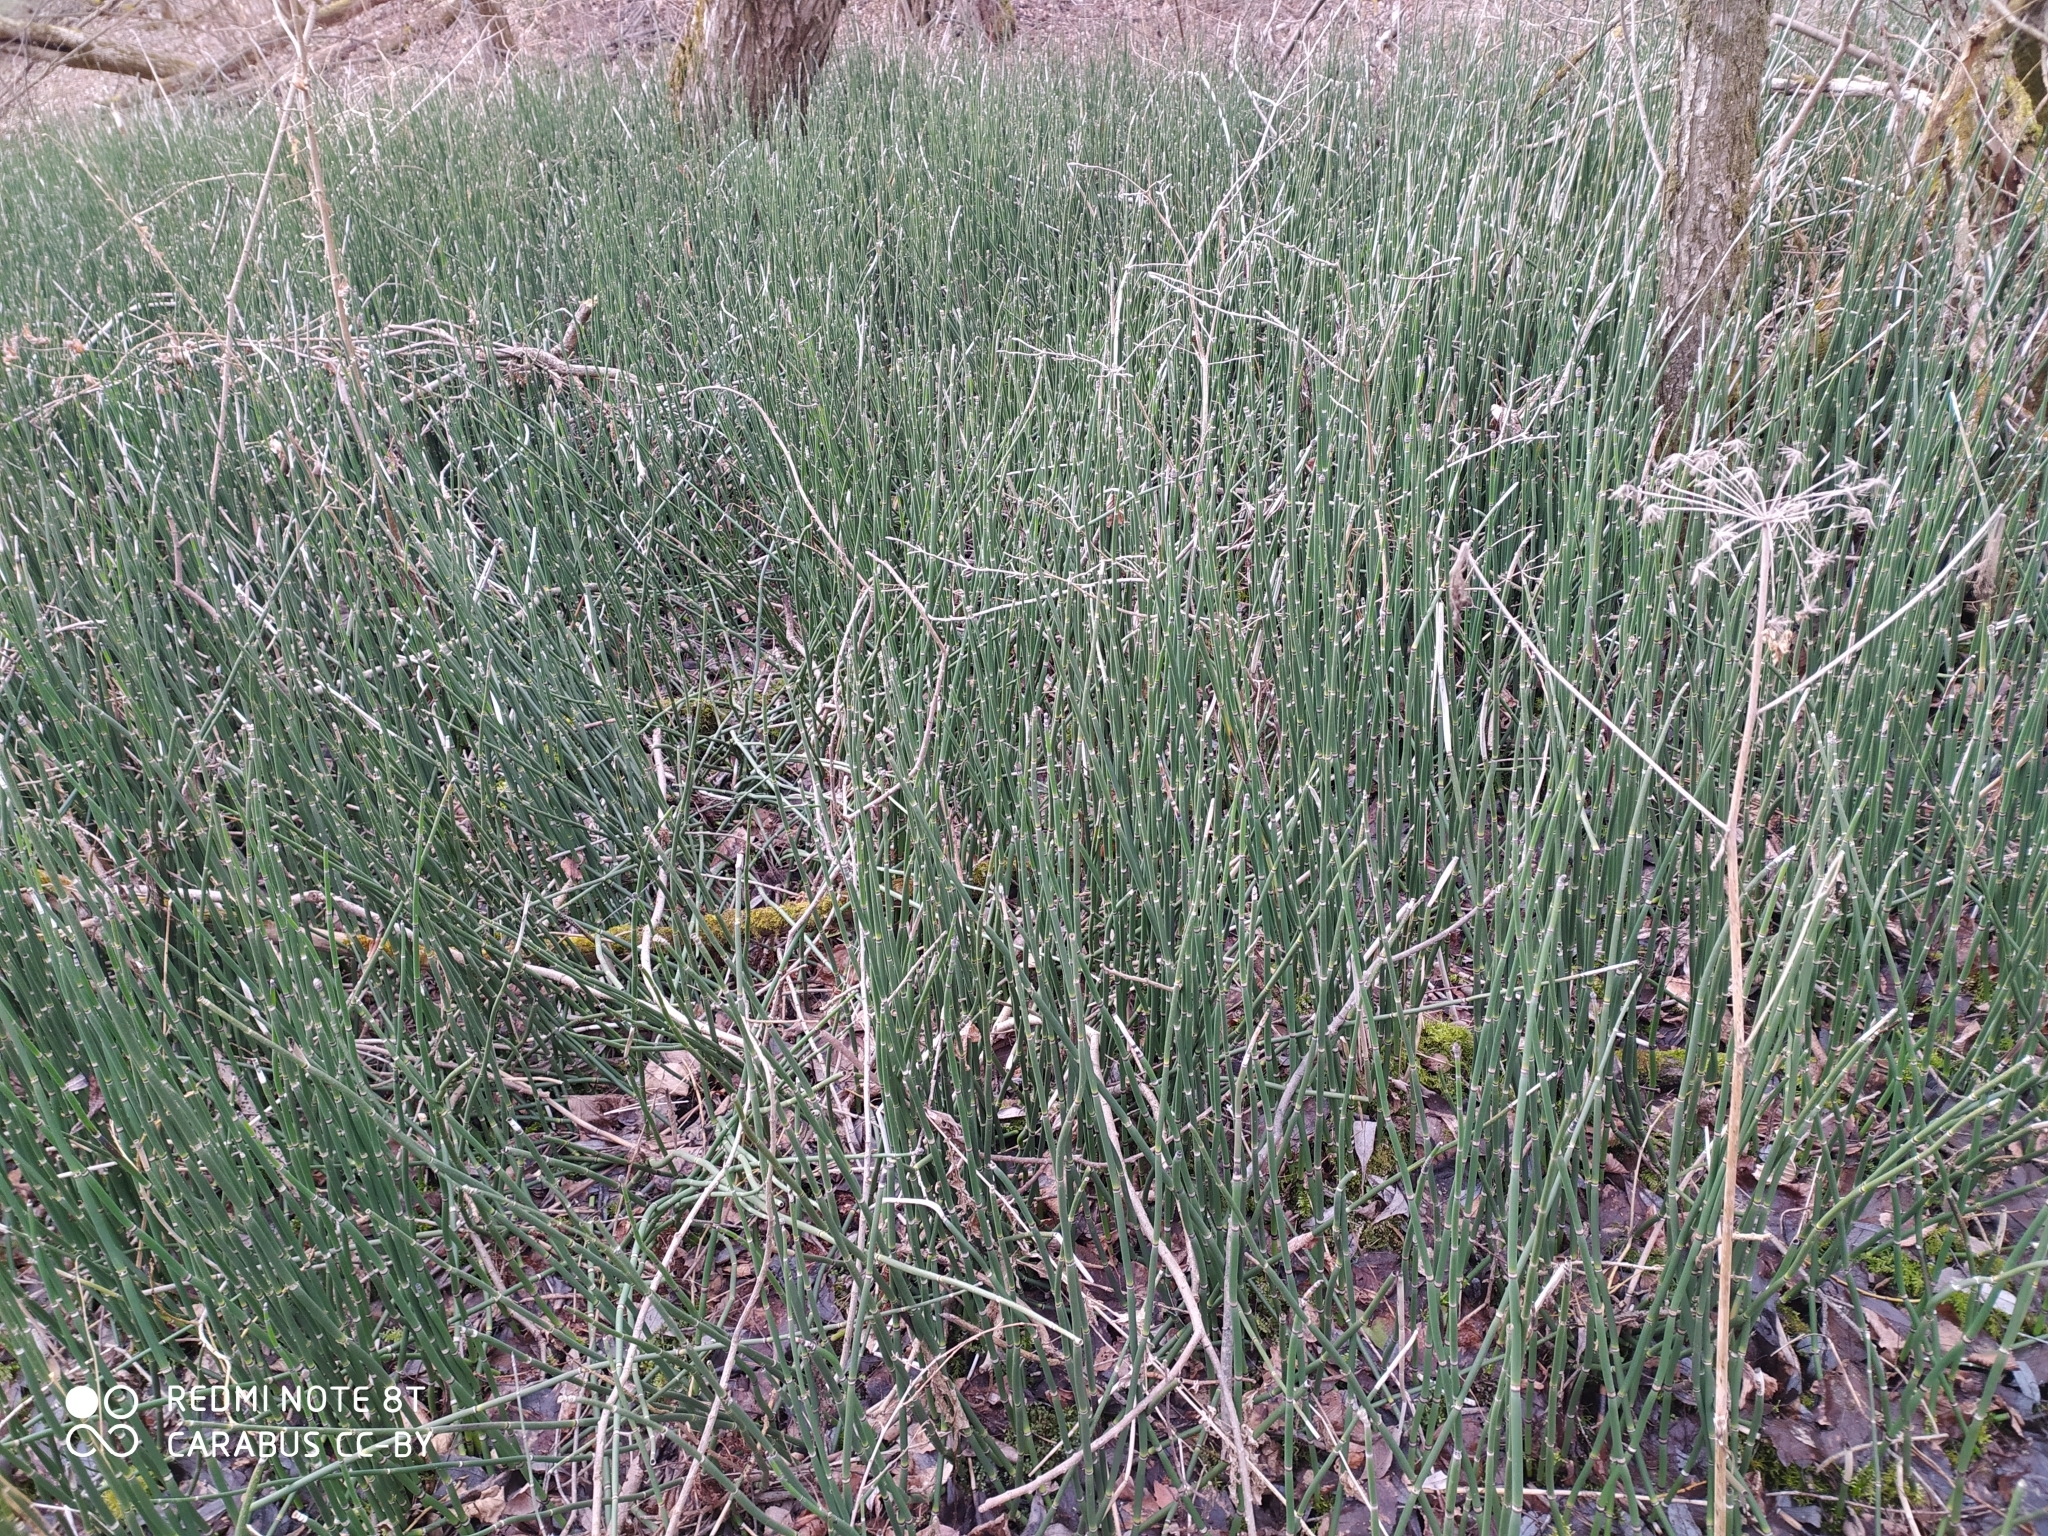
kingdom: Plantae
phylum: Tracheophyta
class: Polypodiopsida
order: Equisetales
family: Equisetaceae
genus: Equisetum
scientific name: Equisetum hyemale
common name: Rough horsetail
